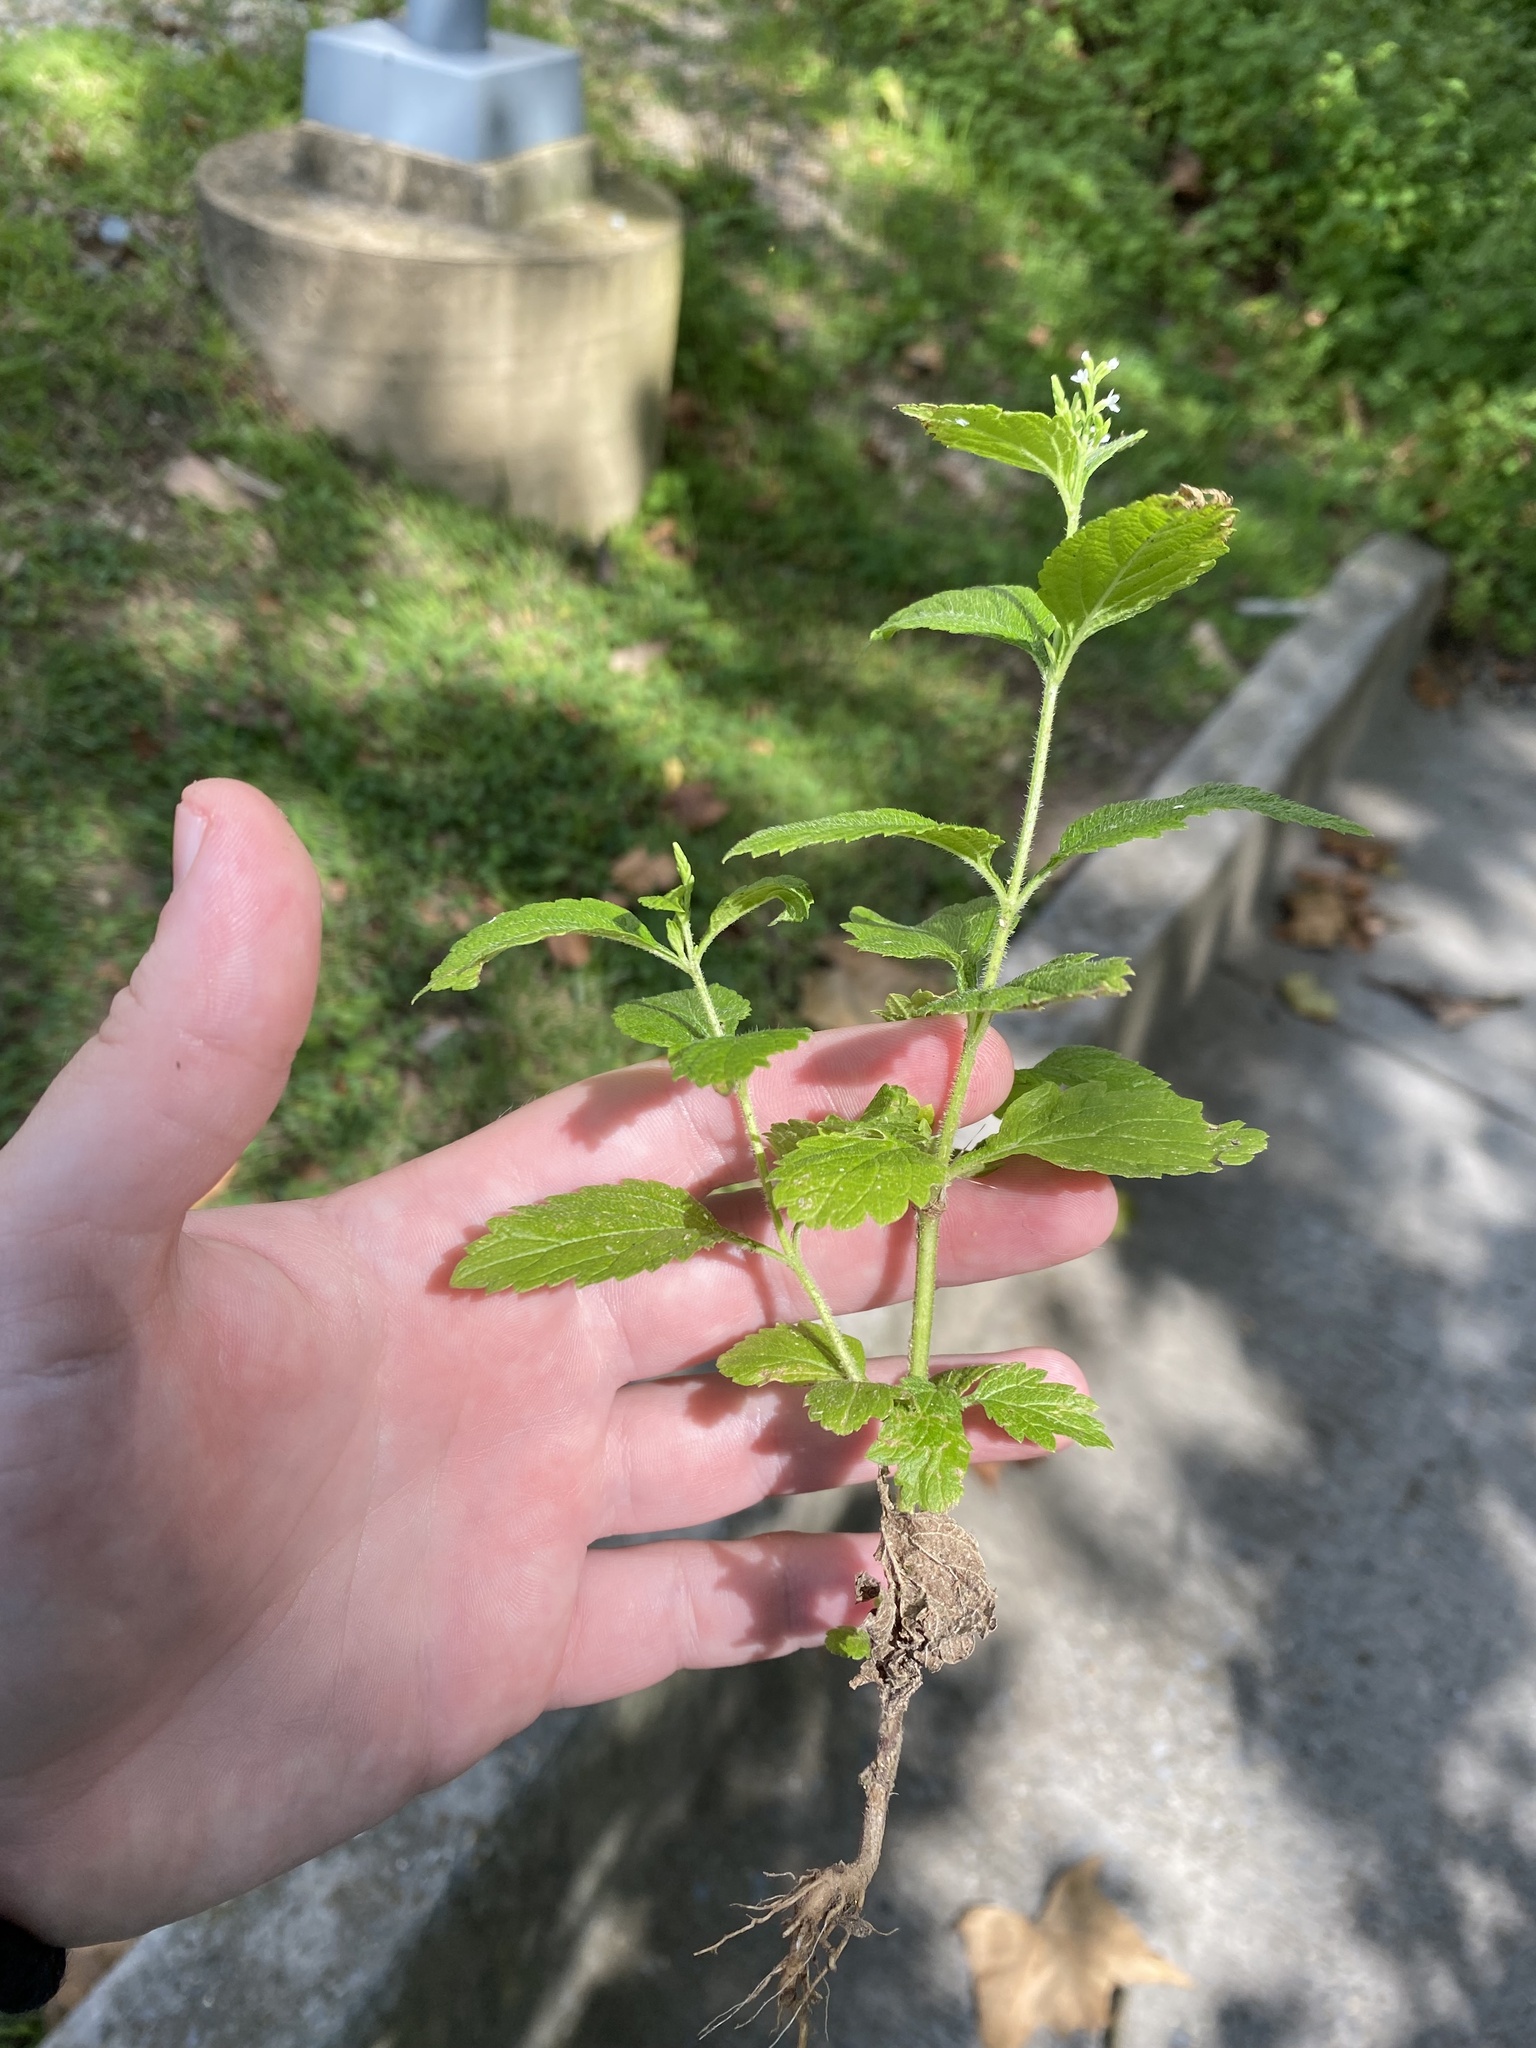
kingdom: Plantae
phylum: Tracheophyta
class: Magnoliopsida
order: Lamiales
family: Verbenaceae
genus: Verbena
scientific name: Verbena urticifolia
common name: Nettle-leaved vervain
